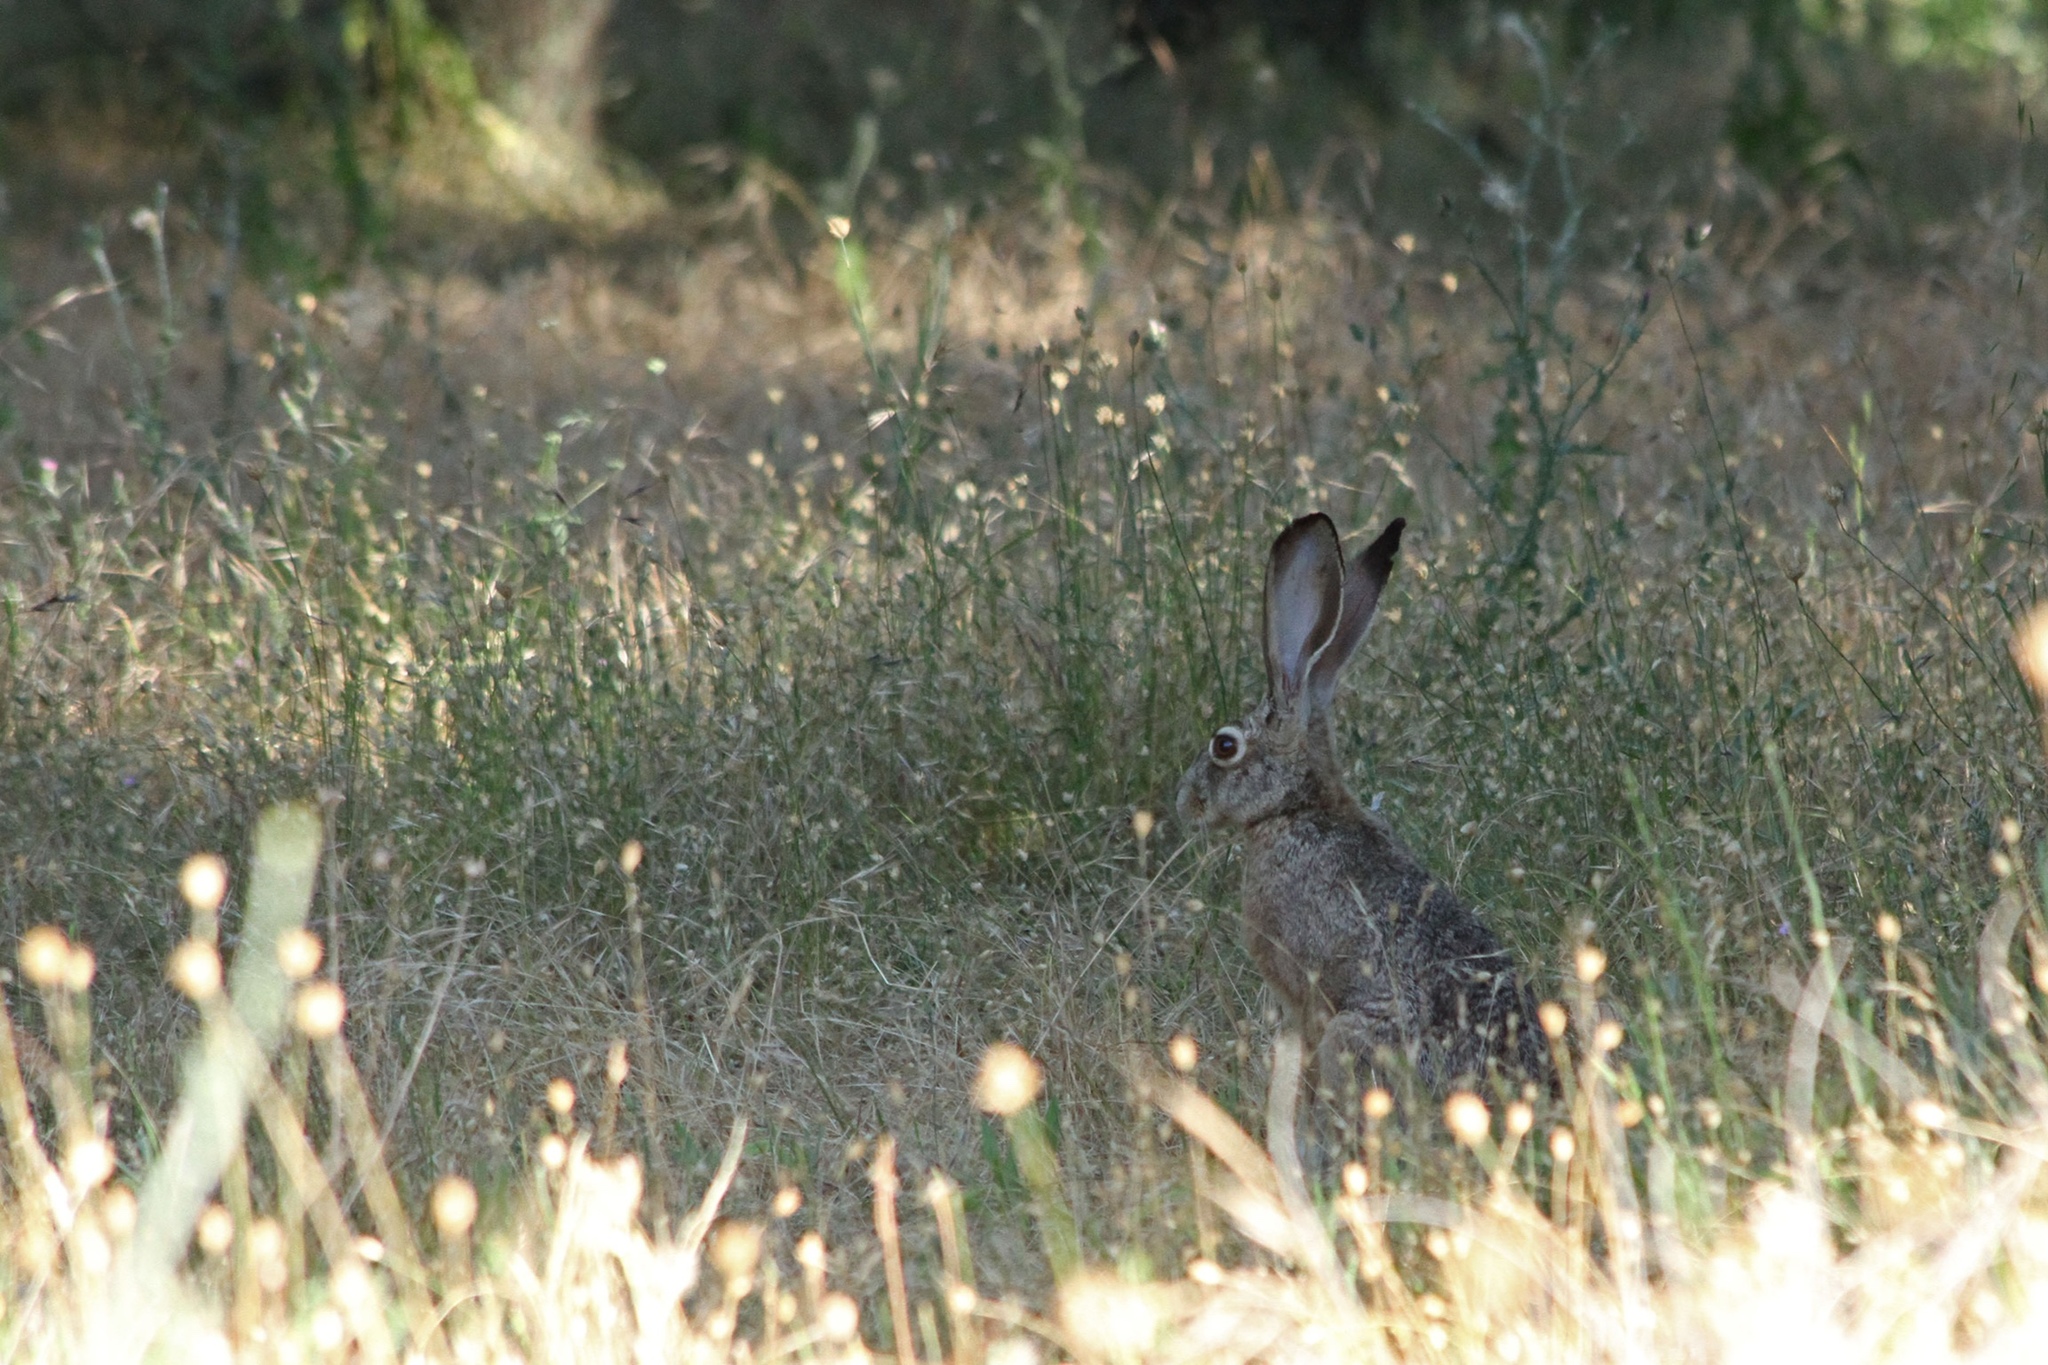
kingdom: Animalia
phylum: Chordata
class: Mammalia
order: Lagomorpha
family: Leporidae
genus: Lepus
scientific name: Lepus californicus
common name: Black-tailed jackrabbit
